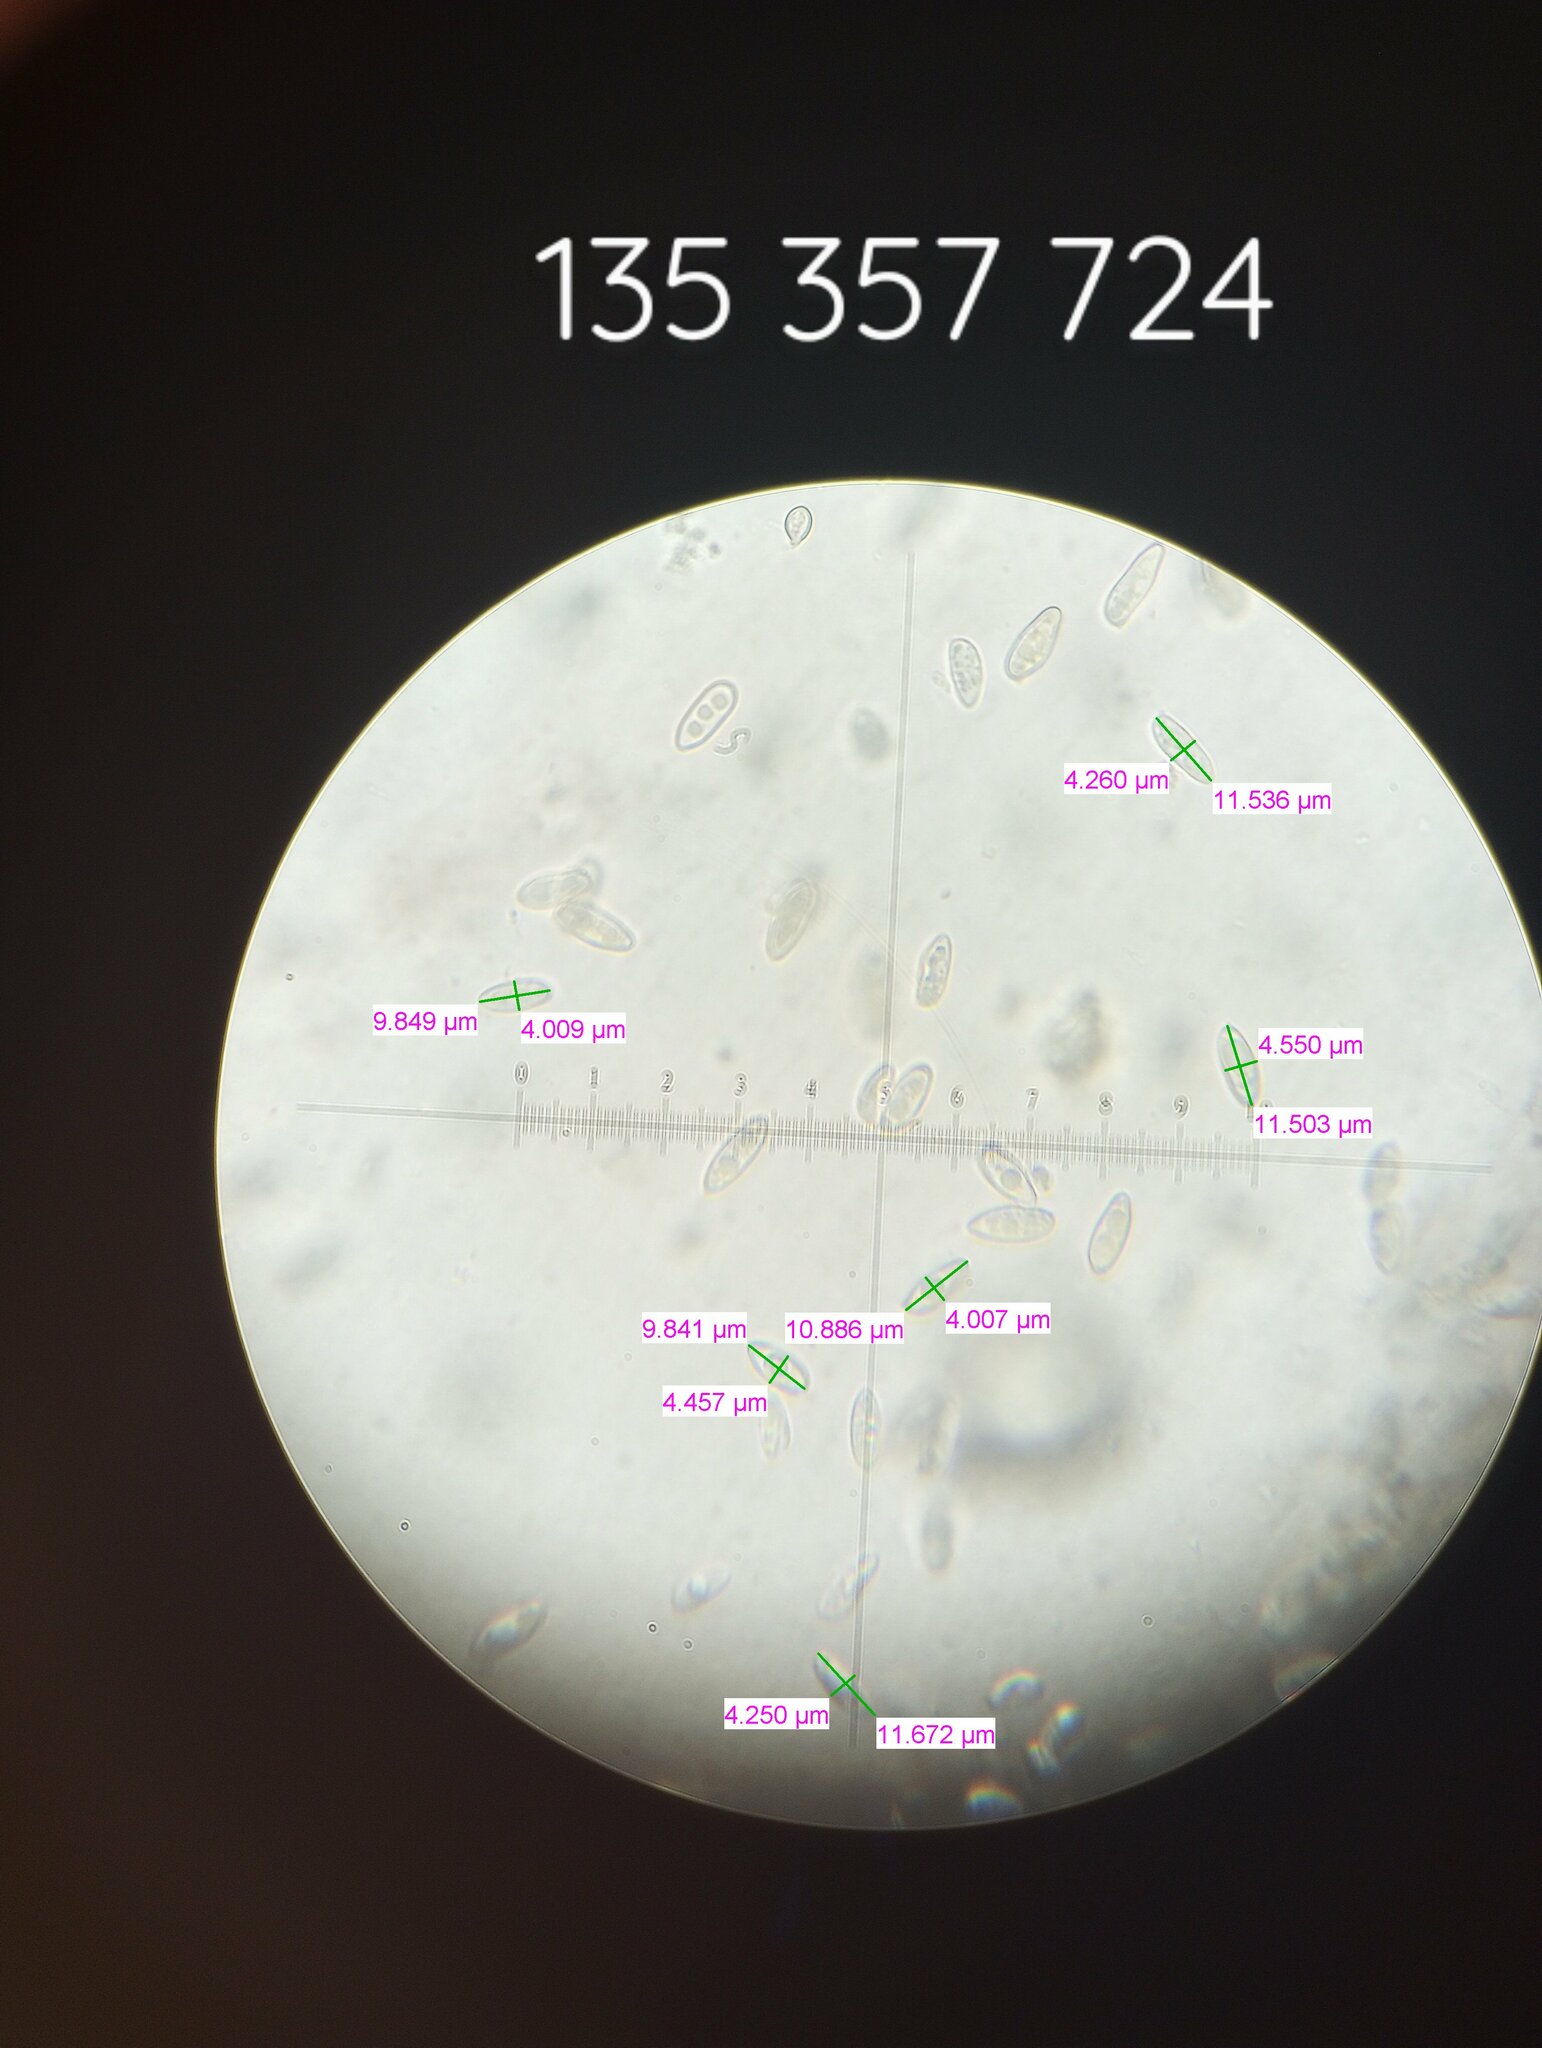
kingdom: Fungi
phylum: Basidiomycota
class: Agaricomycetes
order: Boletales
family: Boletaceae
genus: Imleria
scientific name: Imleria pallida
